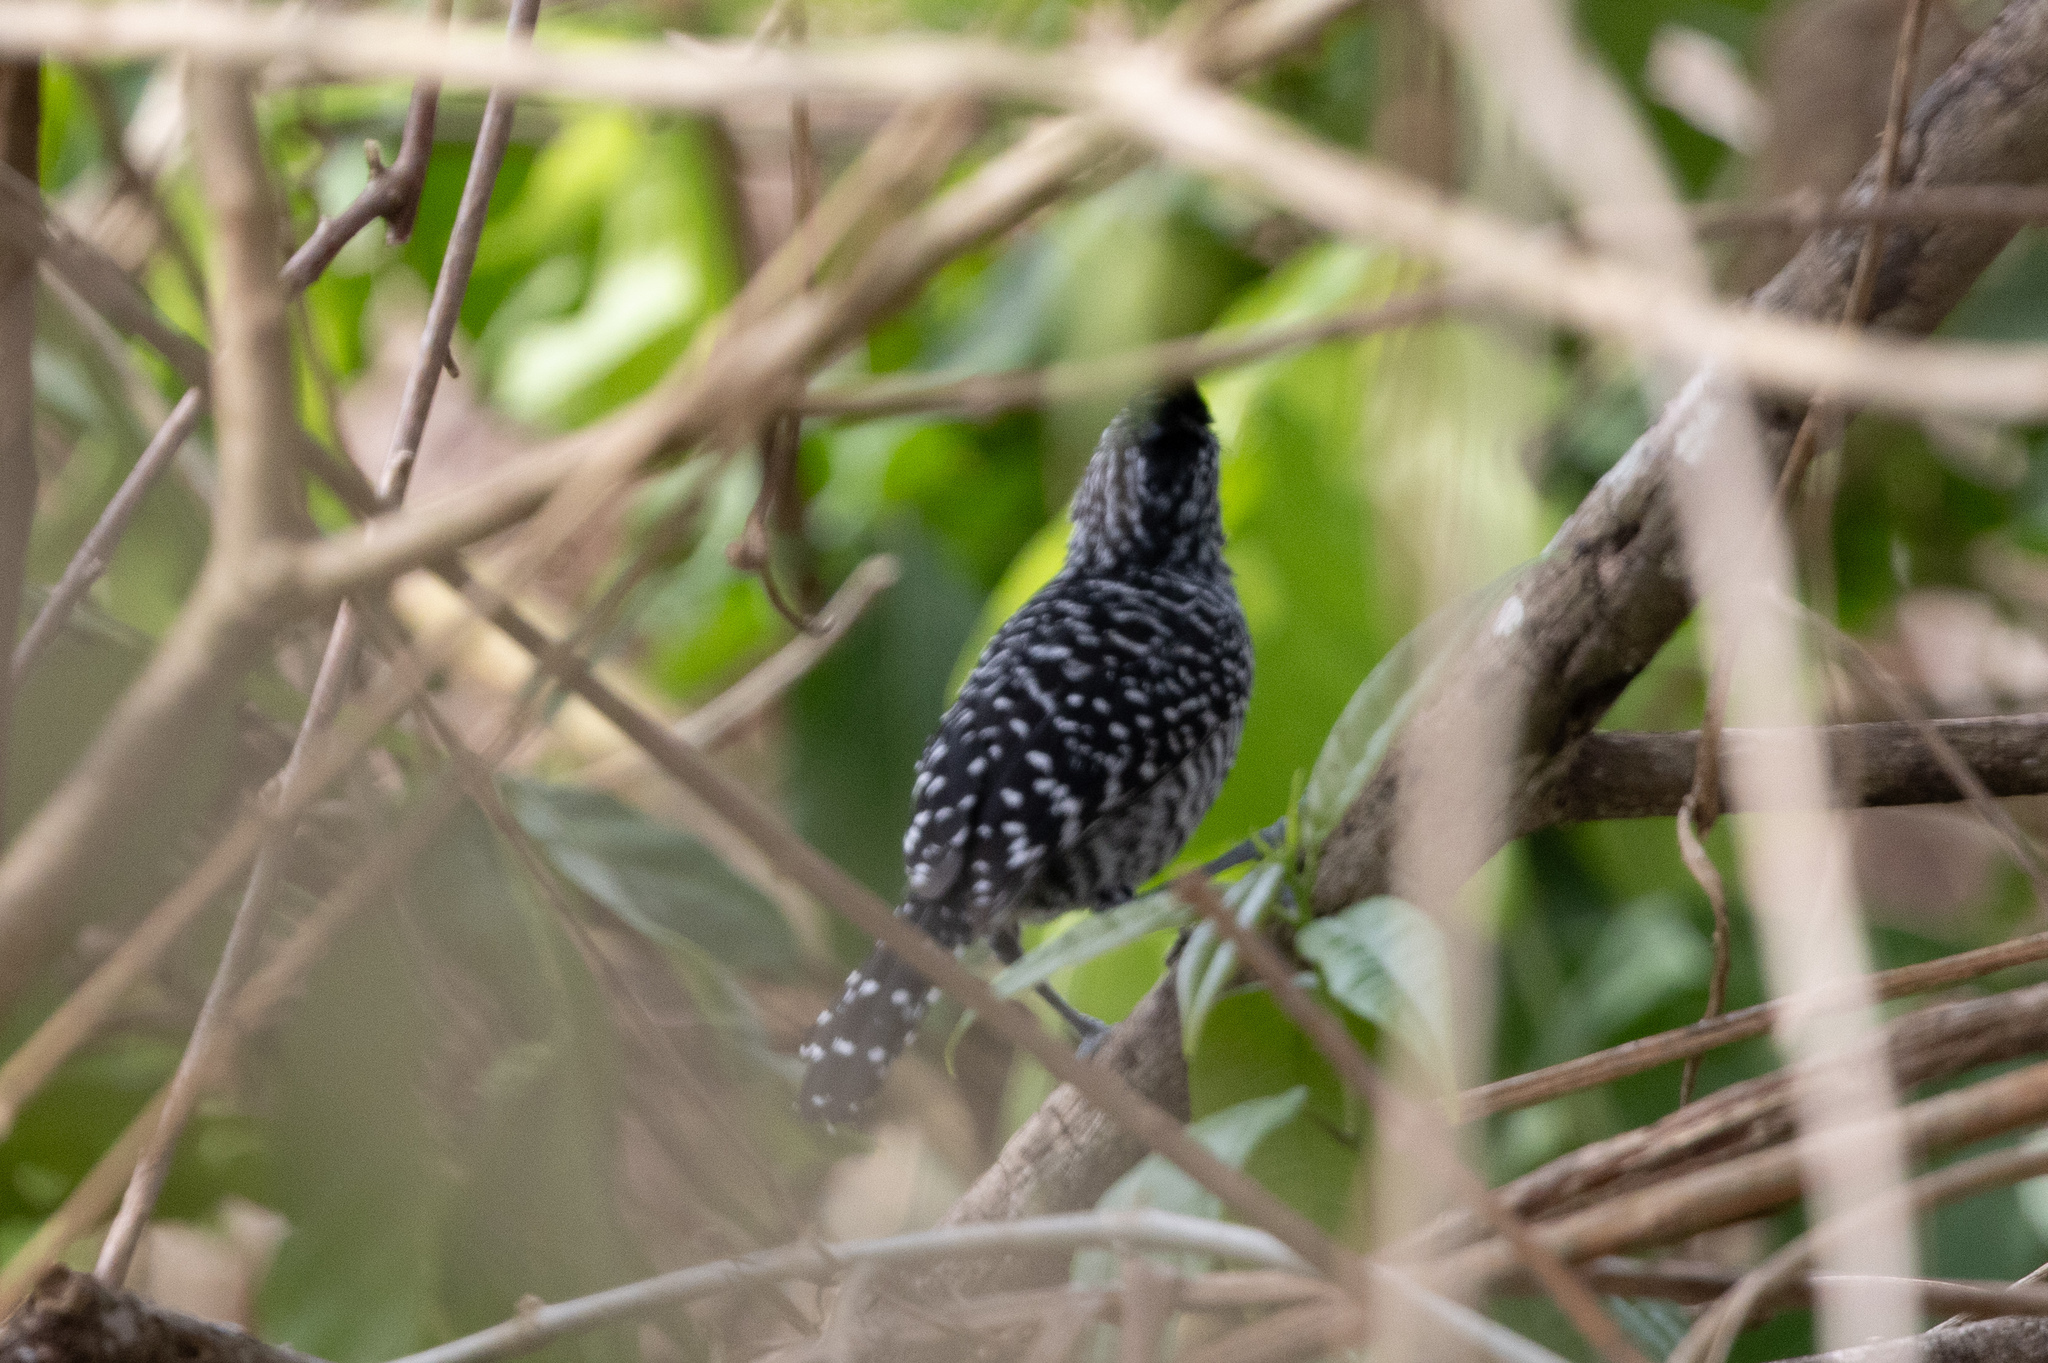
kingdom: Animalia
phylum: Chordata
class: Aves
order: Passeriformes
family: Thamnophilidae
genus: Thamnophilus
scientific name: Thamnophilus doliatus
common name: Barred antshrike
